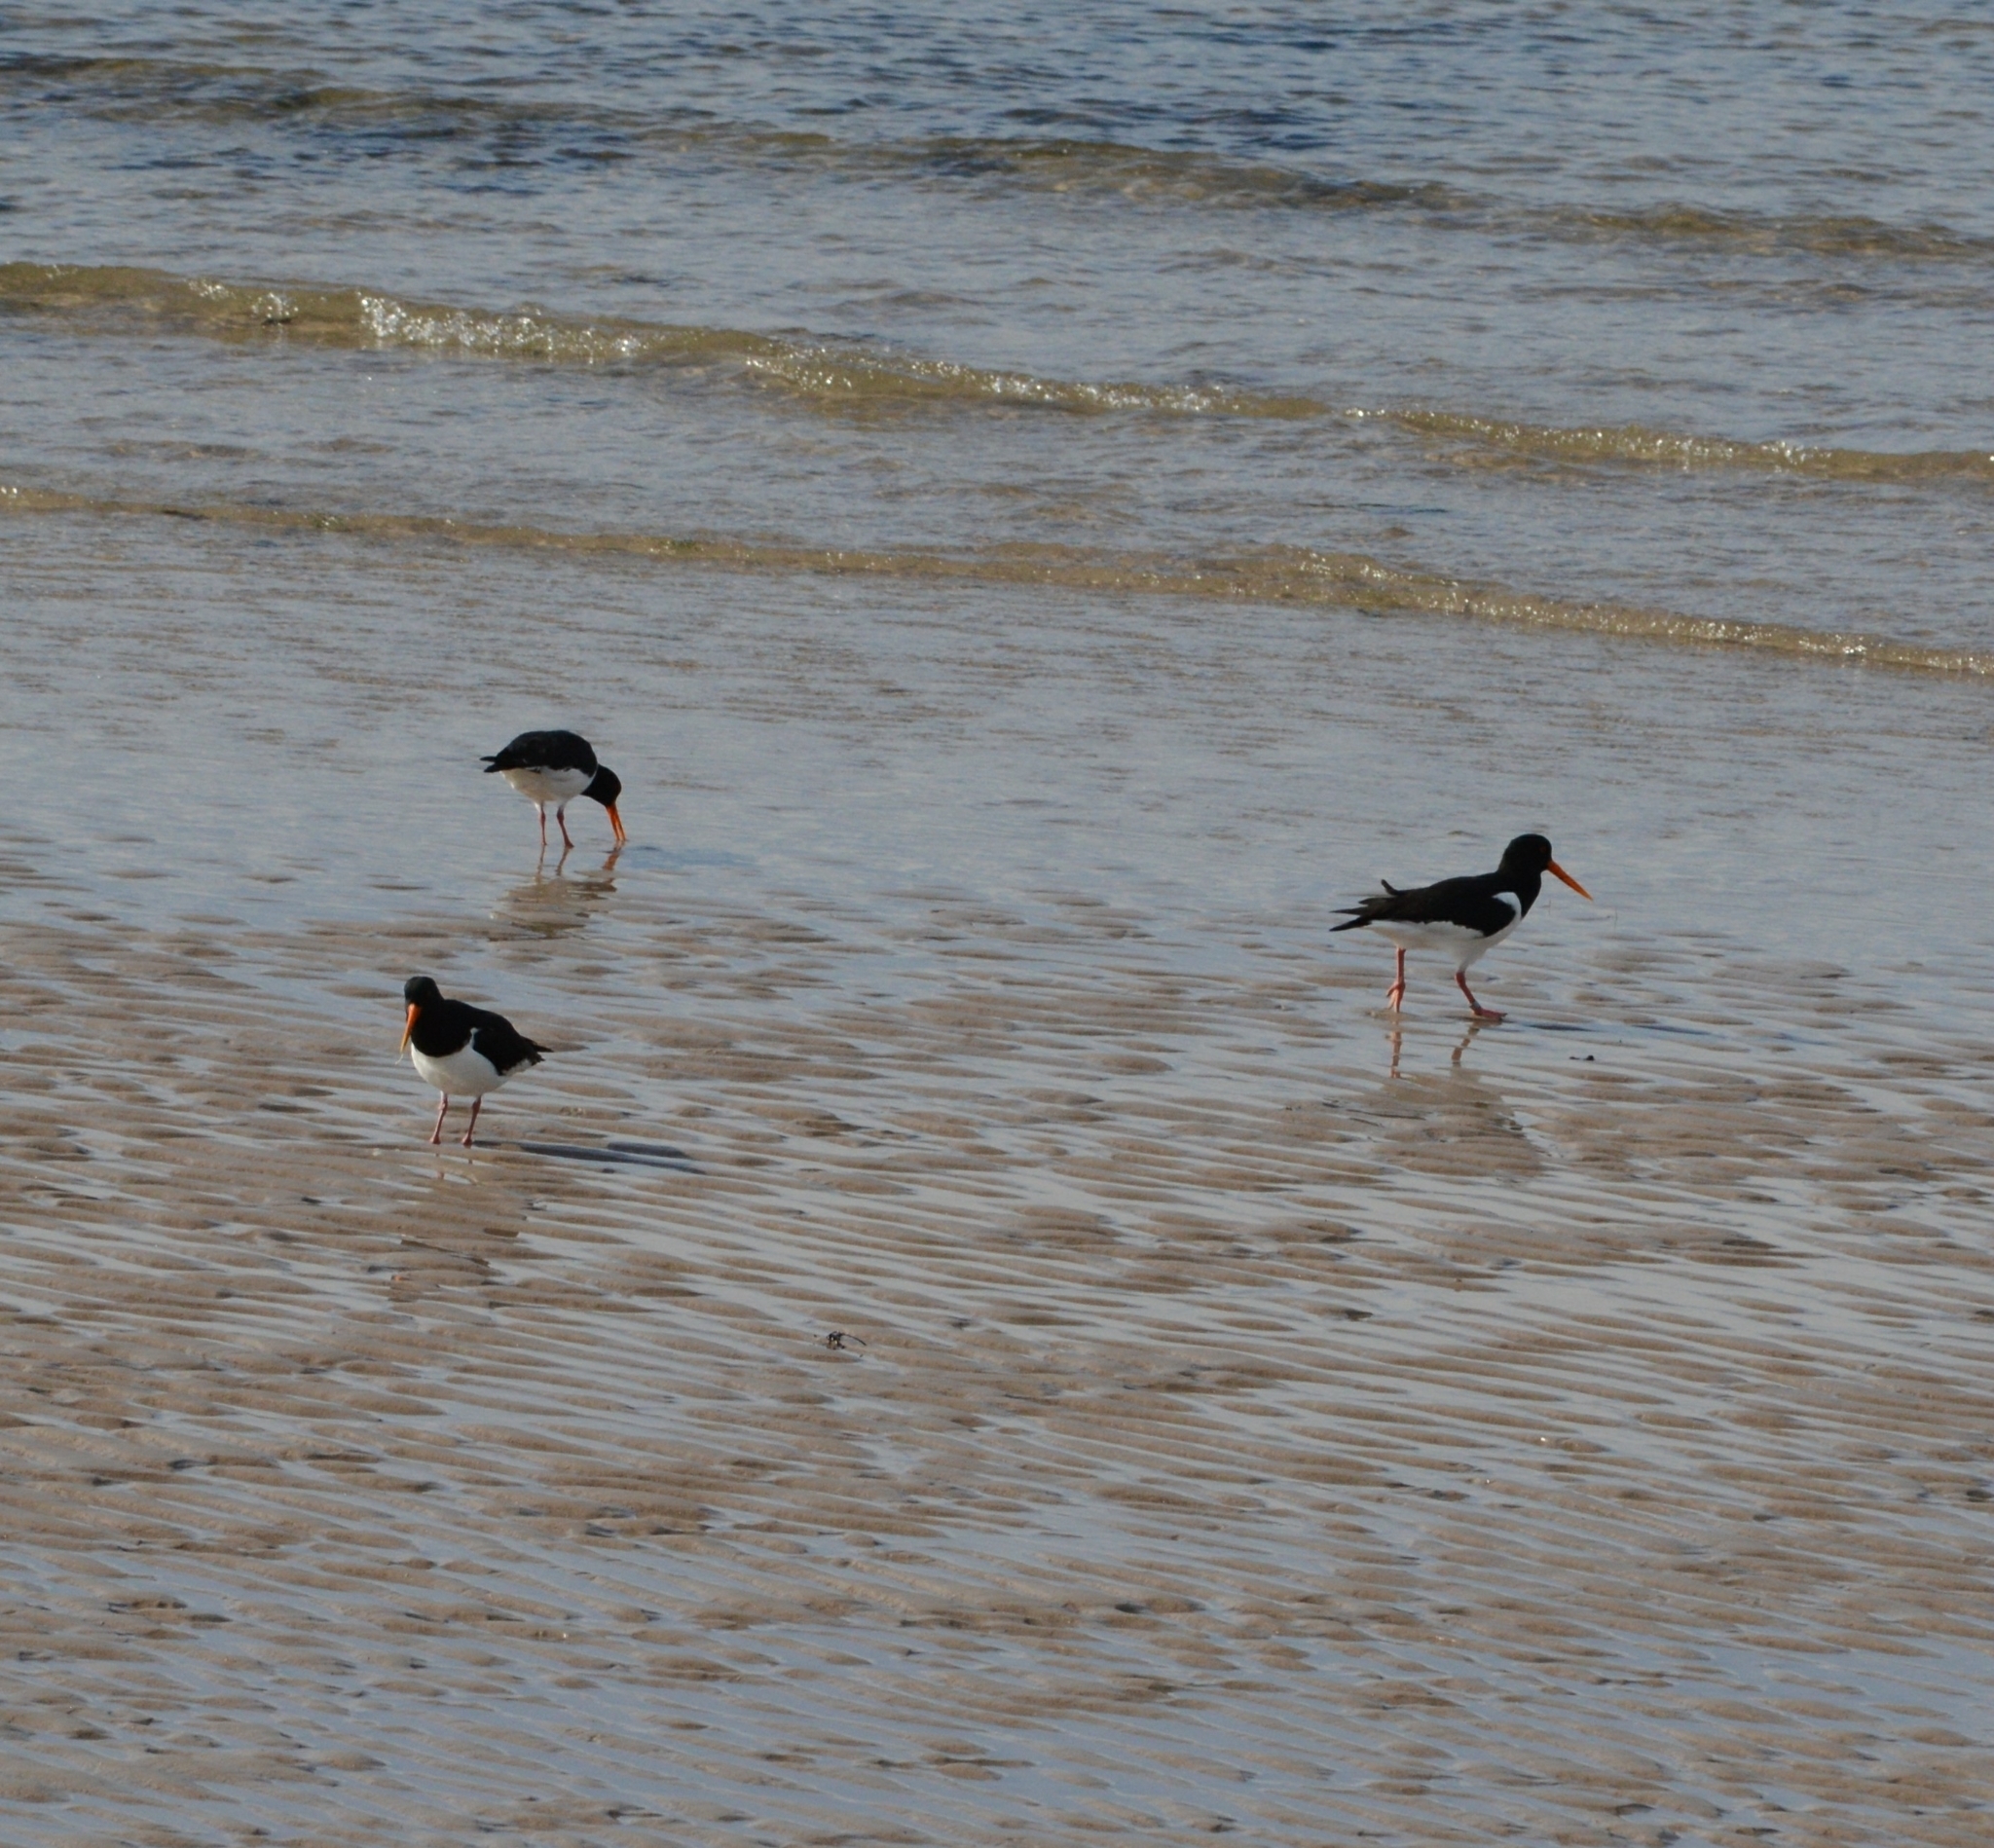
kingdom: Animalia
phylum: Chordata
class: Aves
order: Charadriiformes
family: Haematopodidae
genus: Haematopus
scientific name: Haematopus ostralegus
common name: Eurasian oystercatcher
